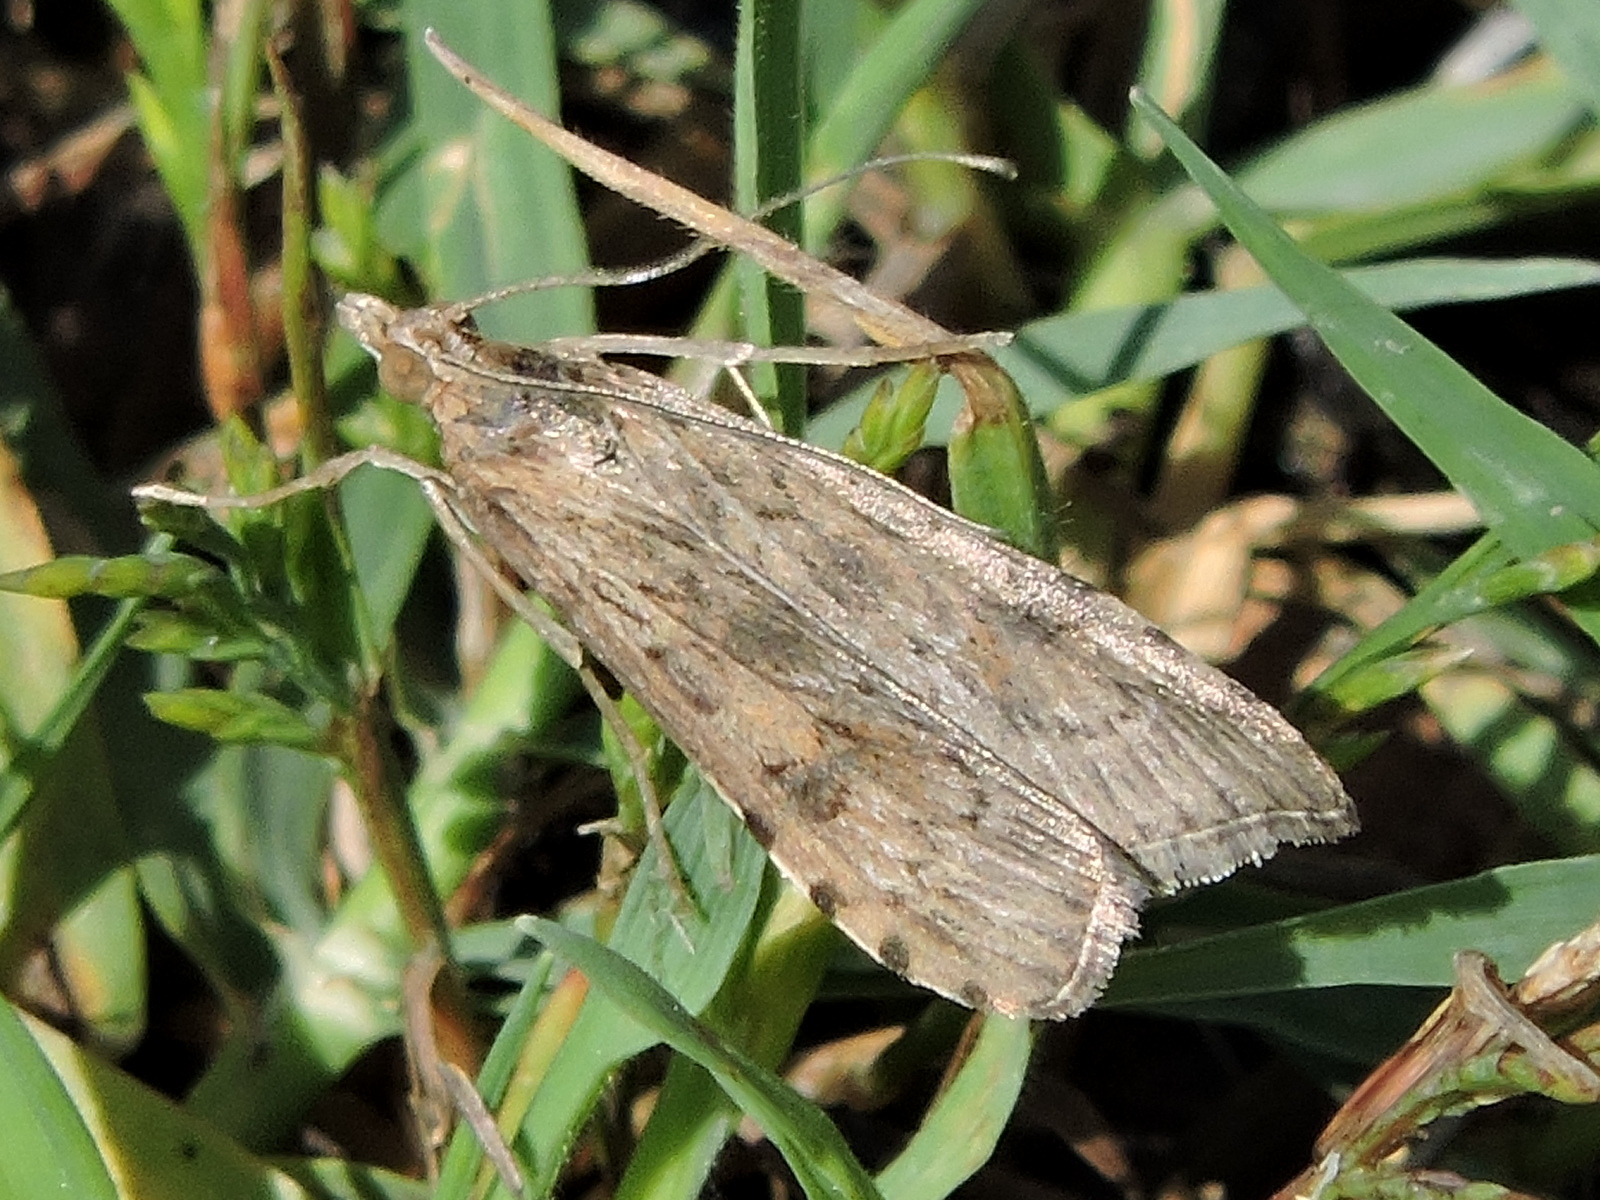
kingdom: Animalia
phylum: Arthropoda
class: Insecta
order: Lepidoptera
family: Crambidae
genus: Nomophila
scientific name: Nomophila nearctica
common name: American rush veneer
